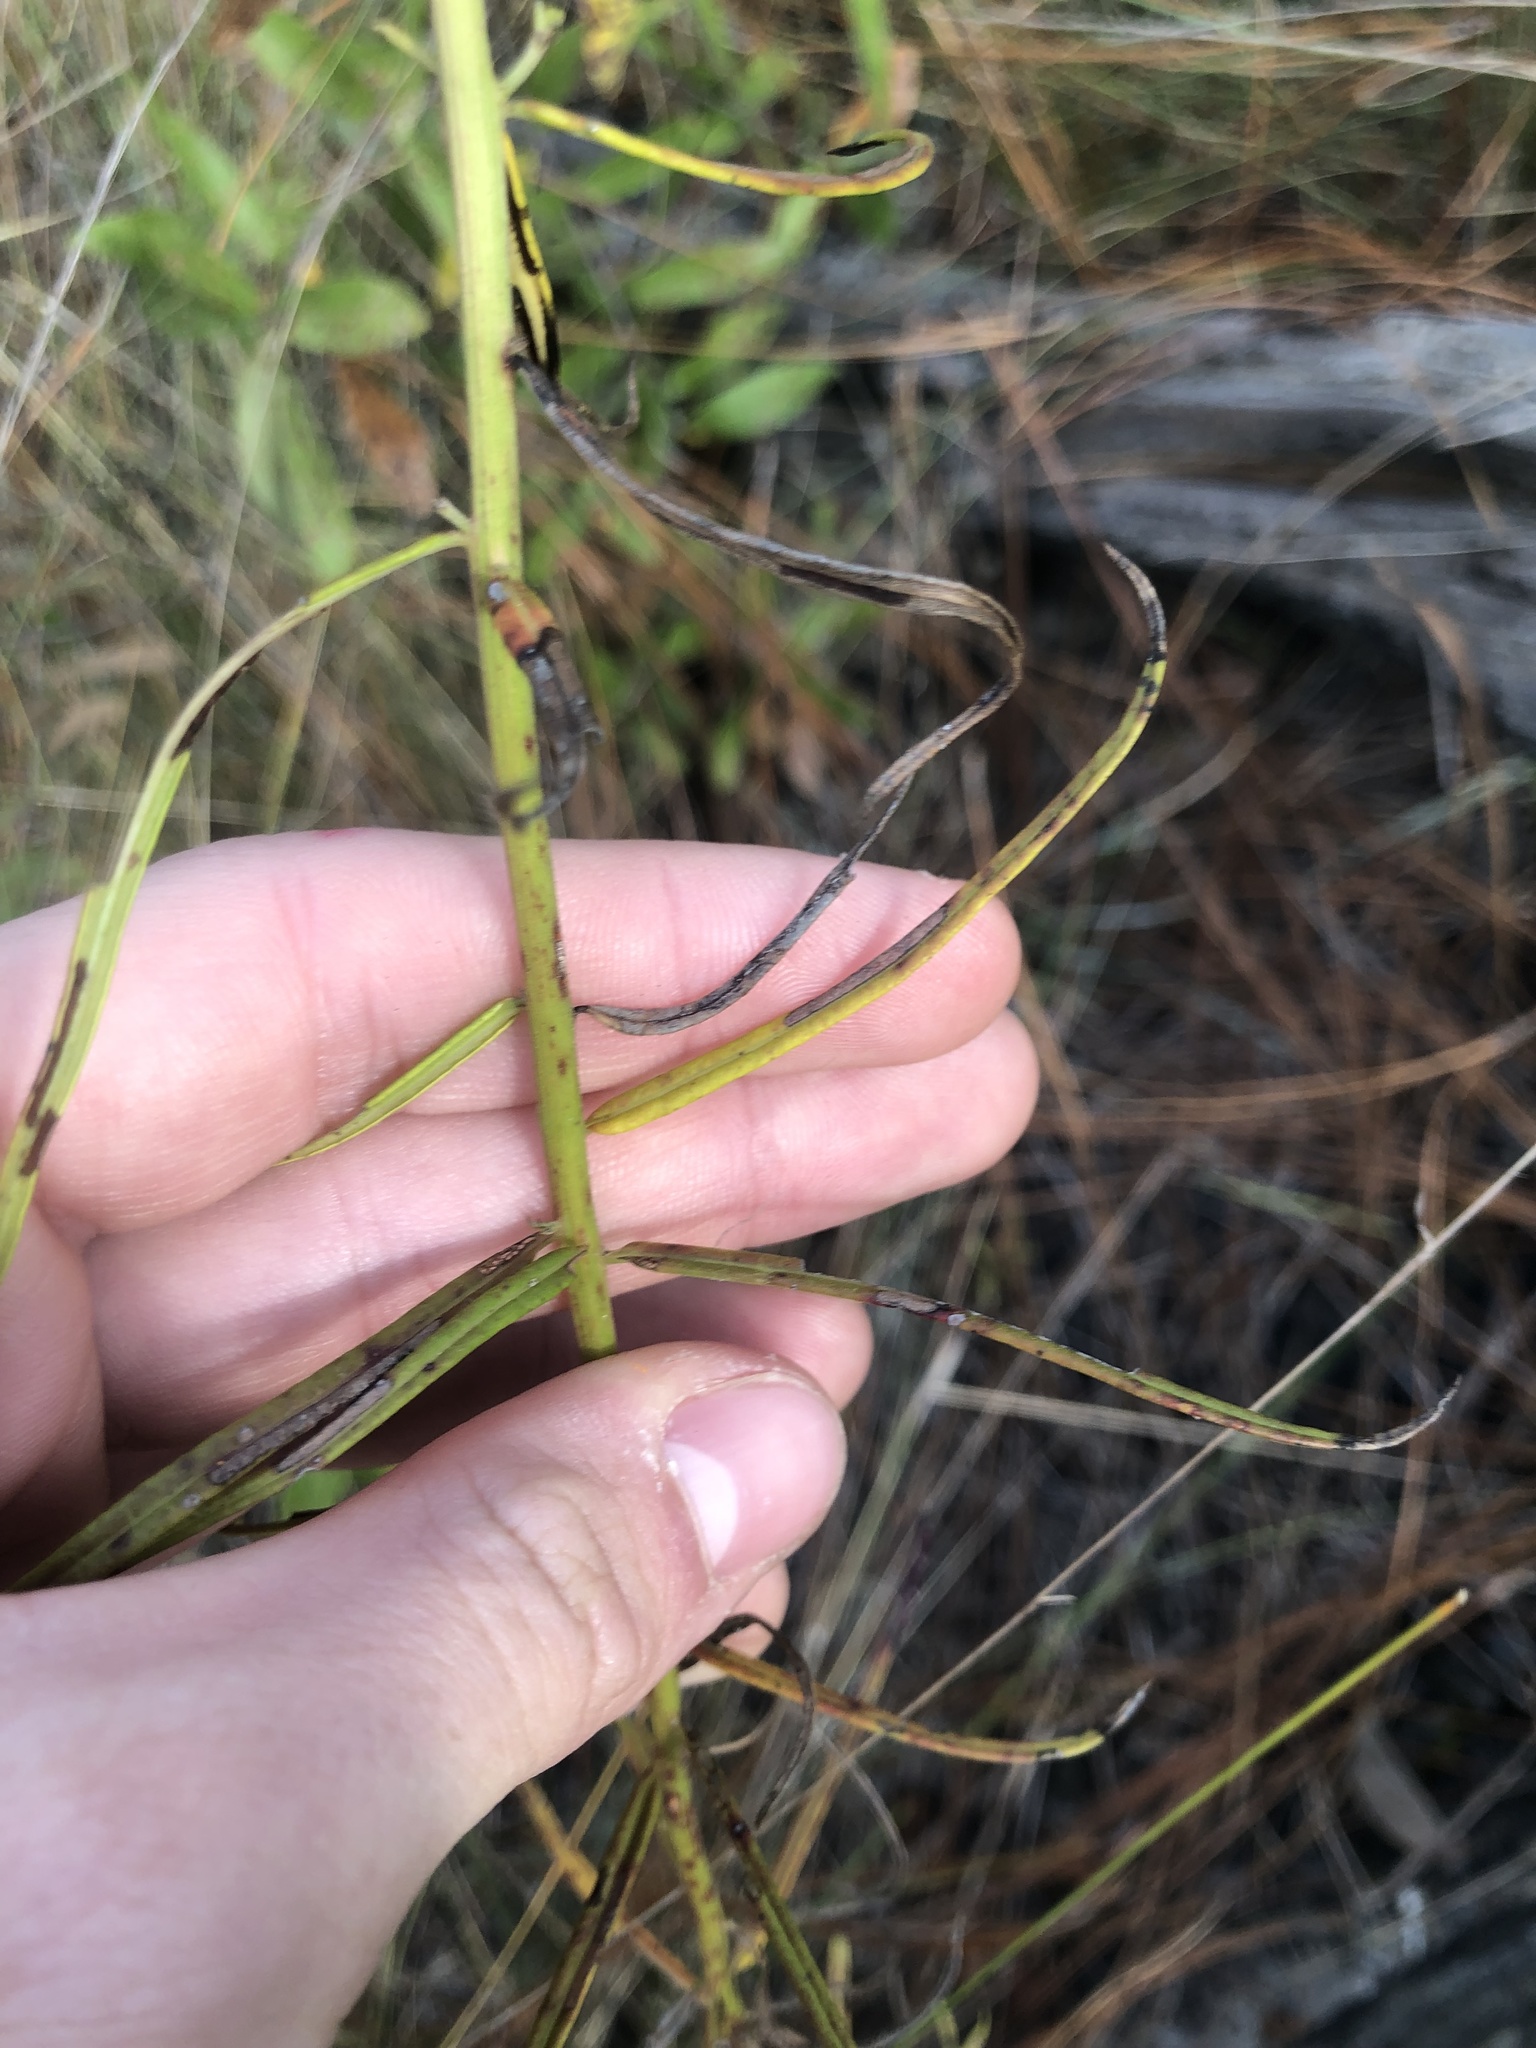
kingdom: Plantae
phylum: Tracheophyta
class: Magnoliopsida
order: Asterales
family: Asteraceae
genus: Vernonia
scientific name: Vernonia angustifolia
